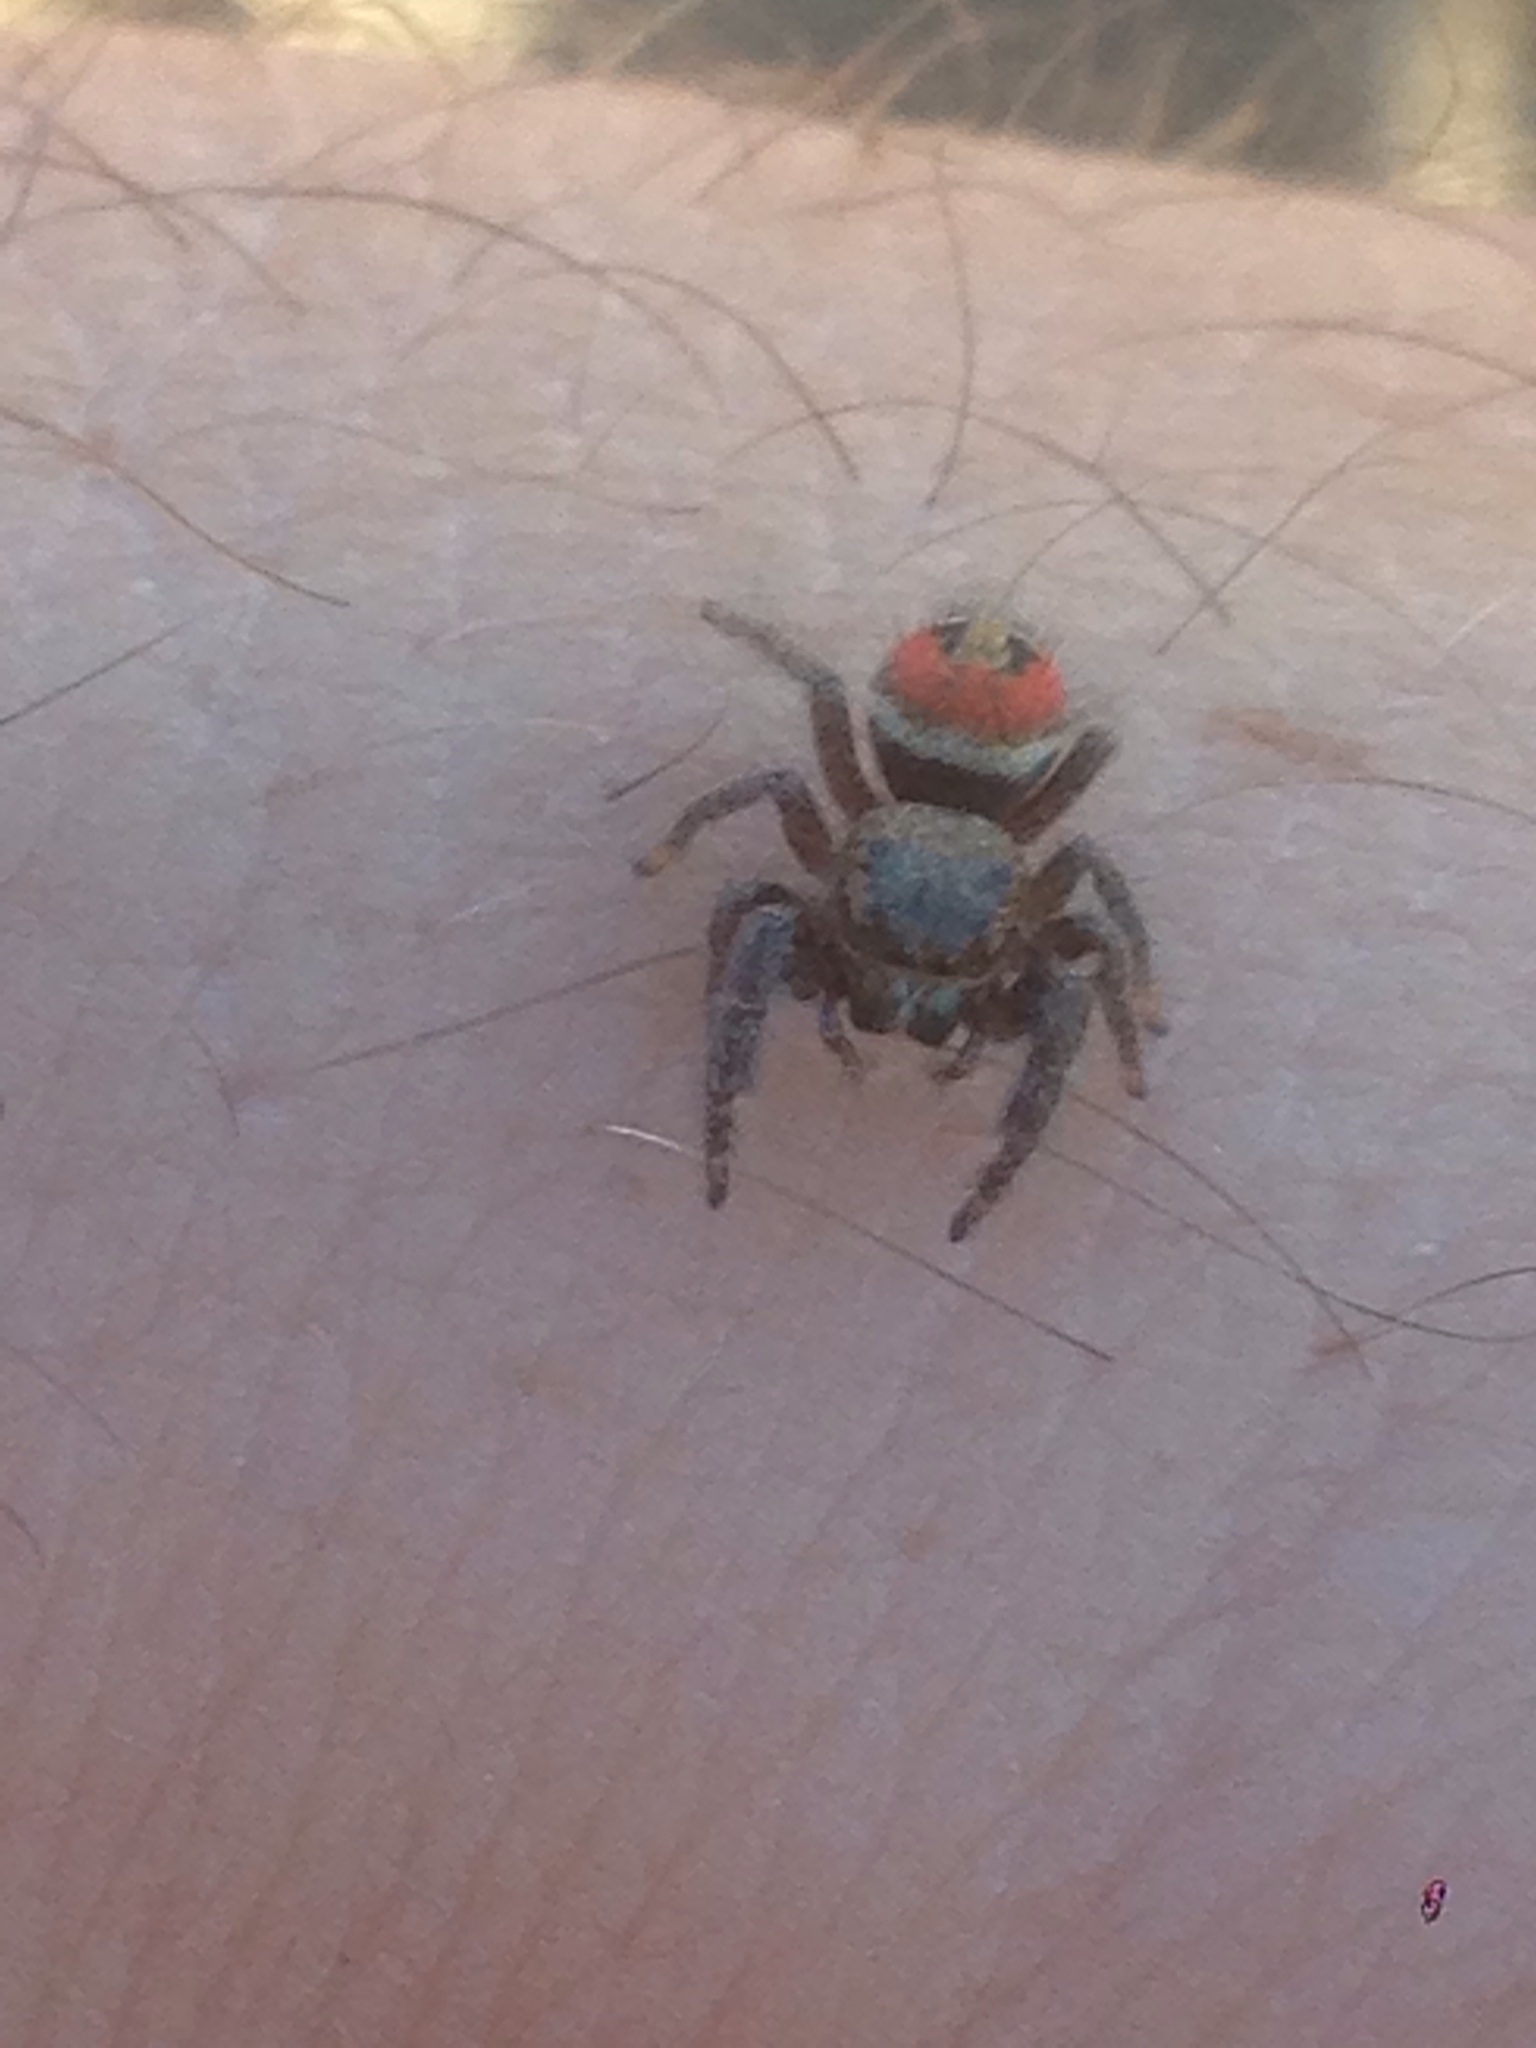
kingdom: Animalia
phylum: Arthropoda
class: Arachnida
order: Araneae
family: Salticidae
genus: Phidippus
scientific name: Phidippus johnsoni
